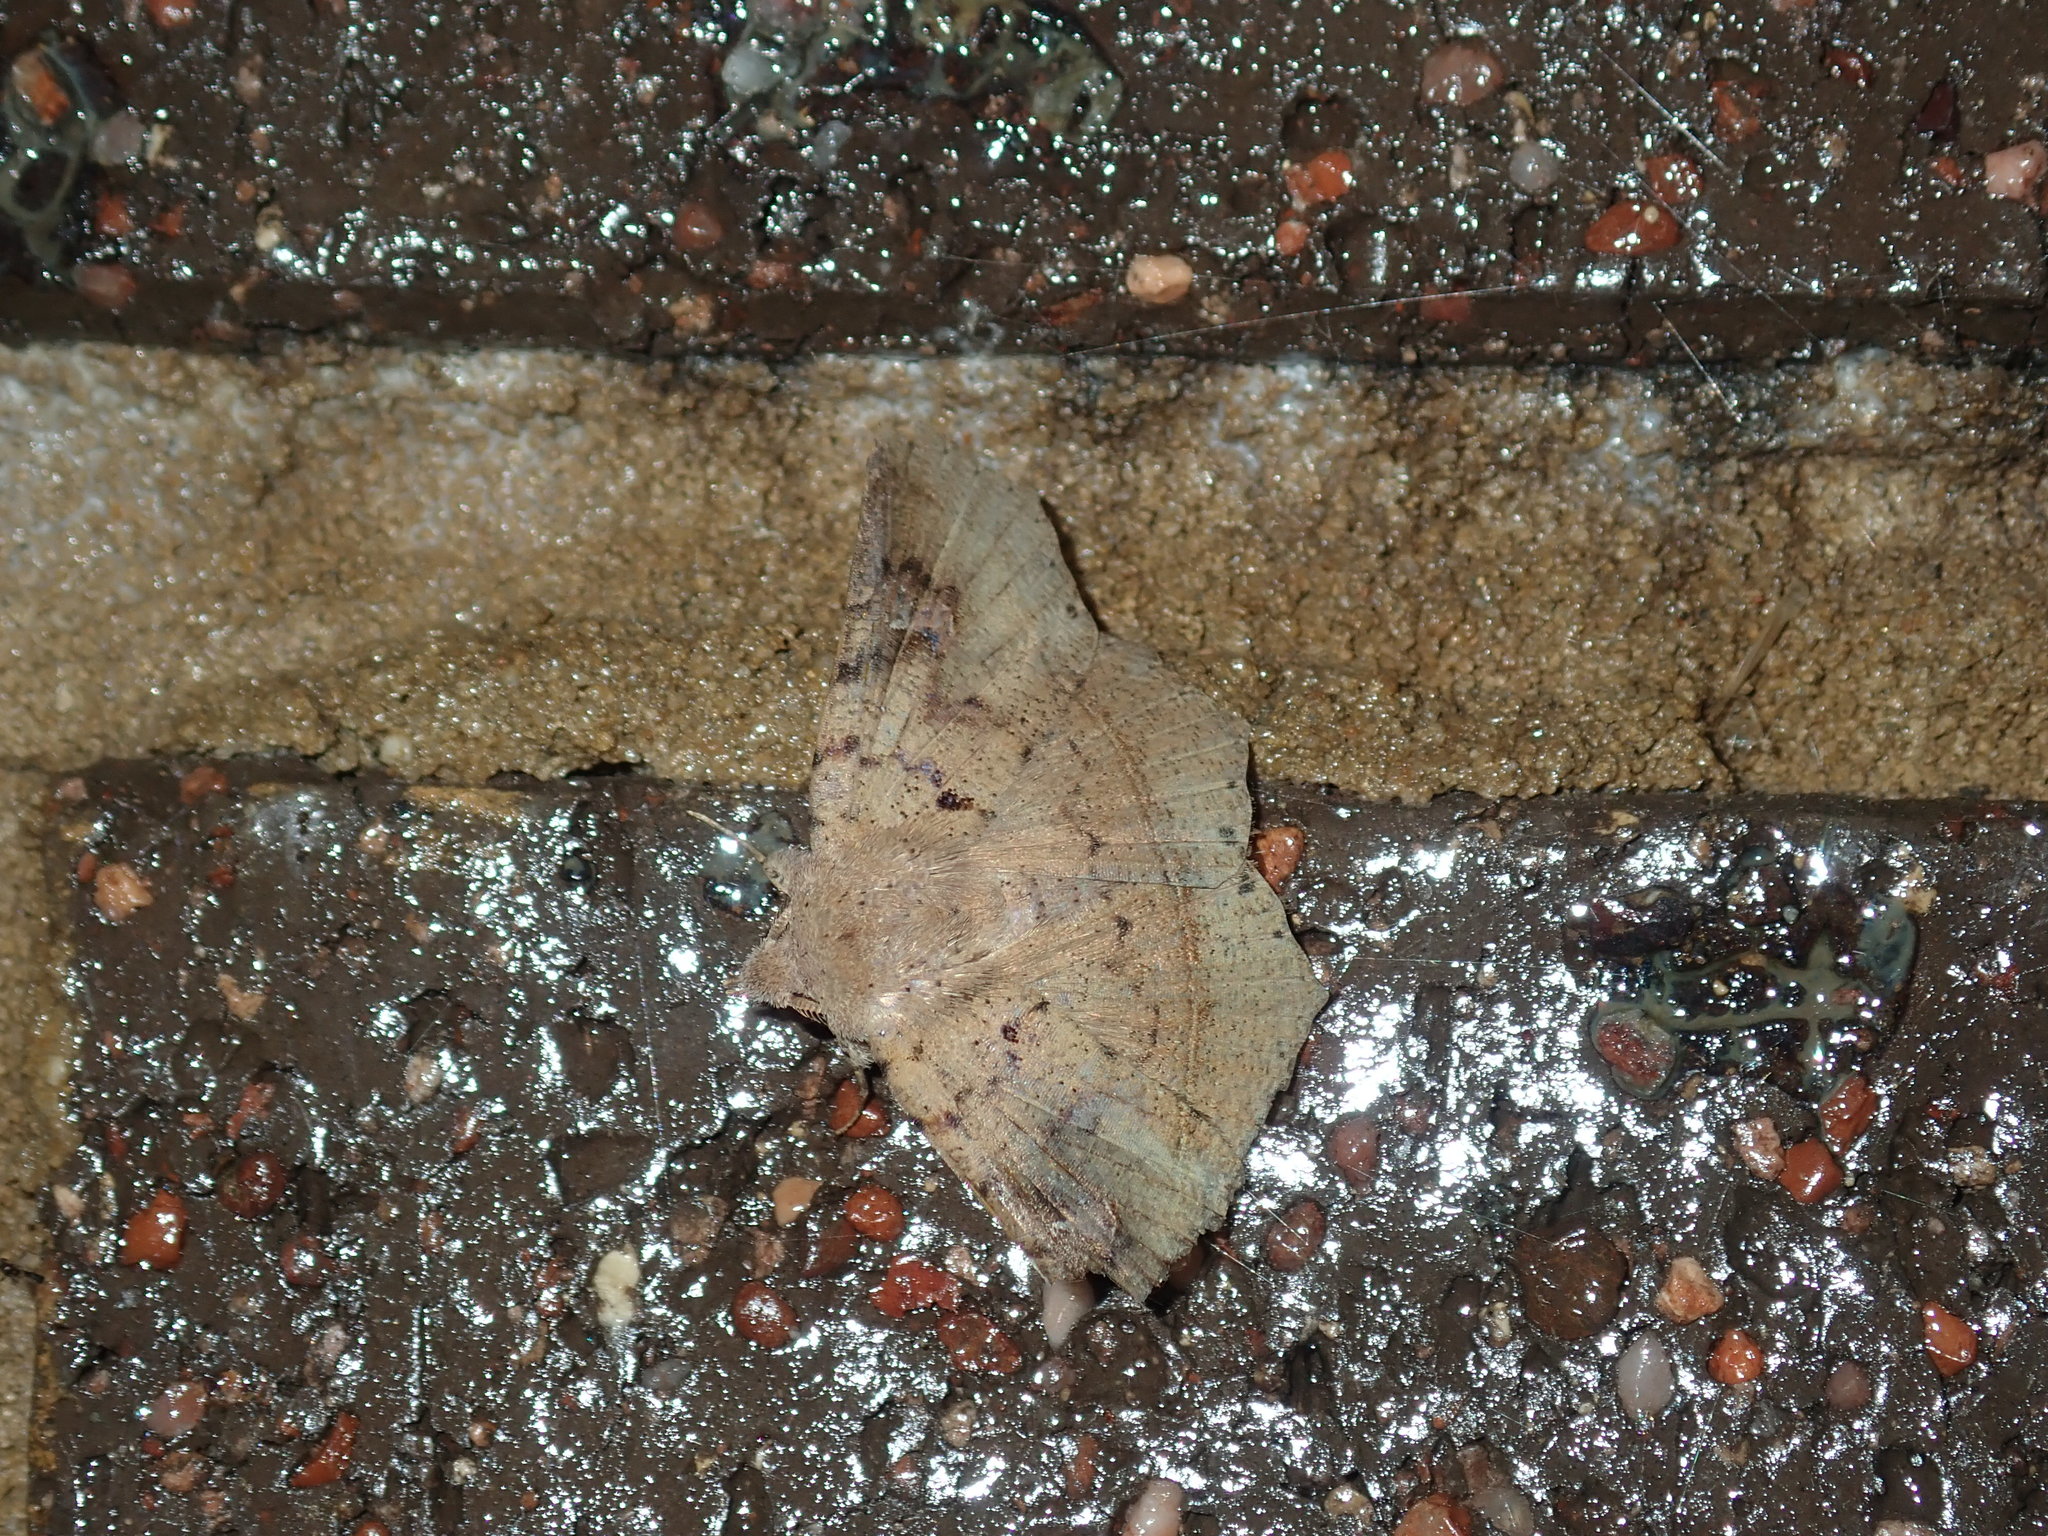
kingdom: Animalia
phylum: Arthropoda
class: Insecta
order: Lepidoptera
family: Erebidae
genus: Amphiongia
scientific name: Amphiongia chordophoides
